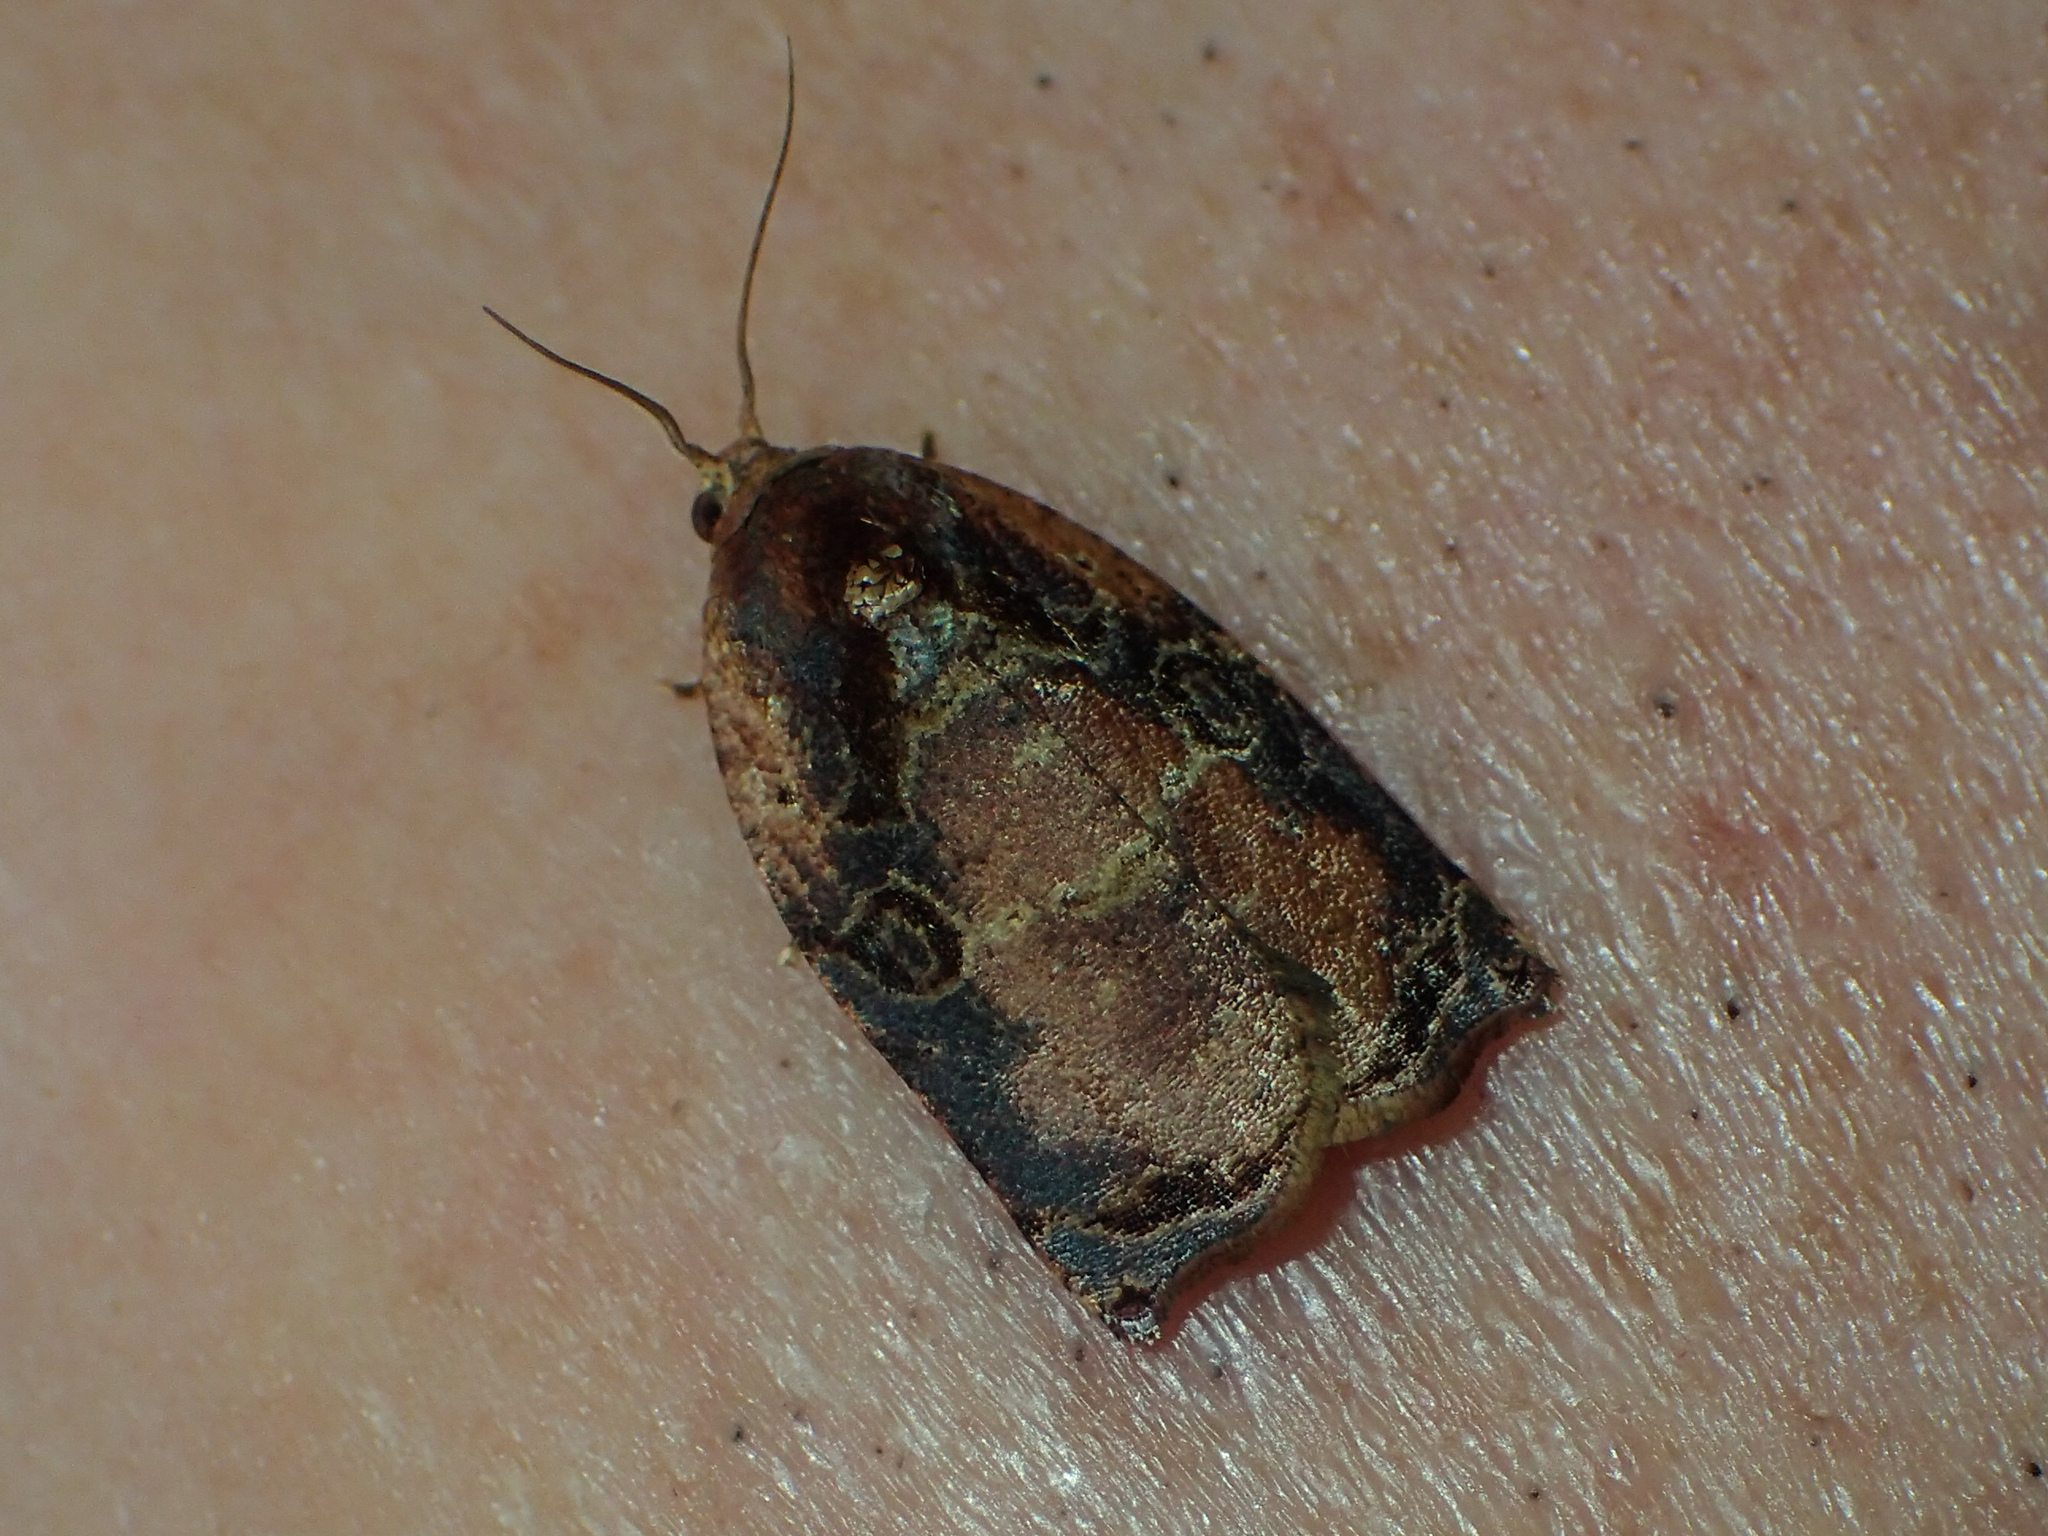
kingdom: Animalia
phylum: Arthropoda
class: Insecta
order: Lepidoptera
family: Tortricidae
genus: Homona
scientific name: Homona eductana
